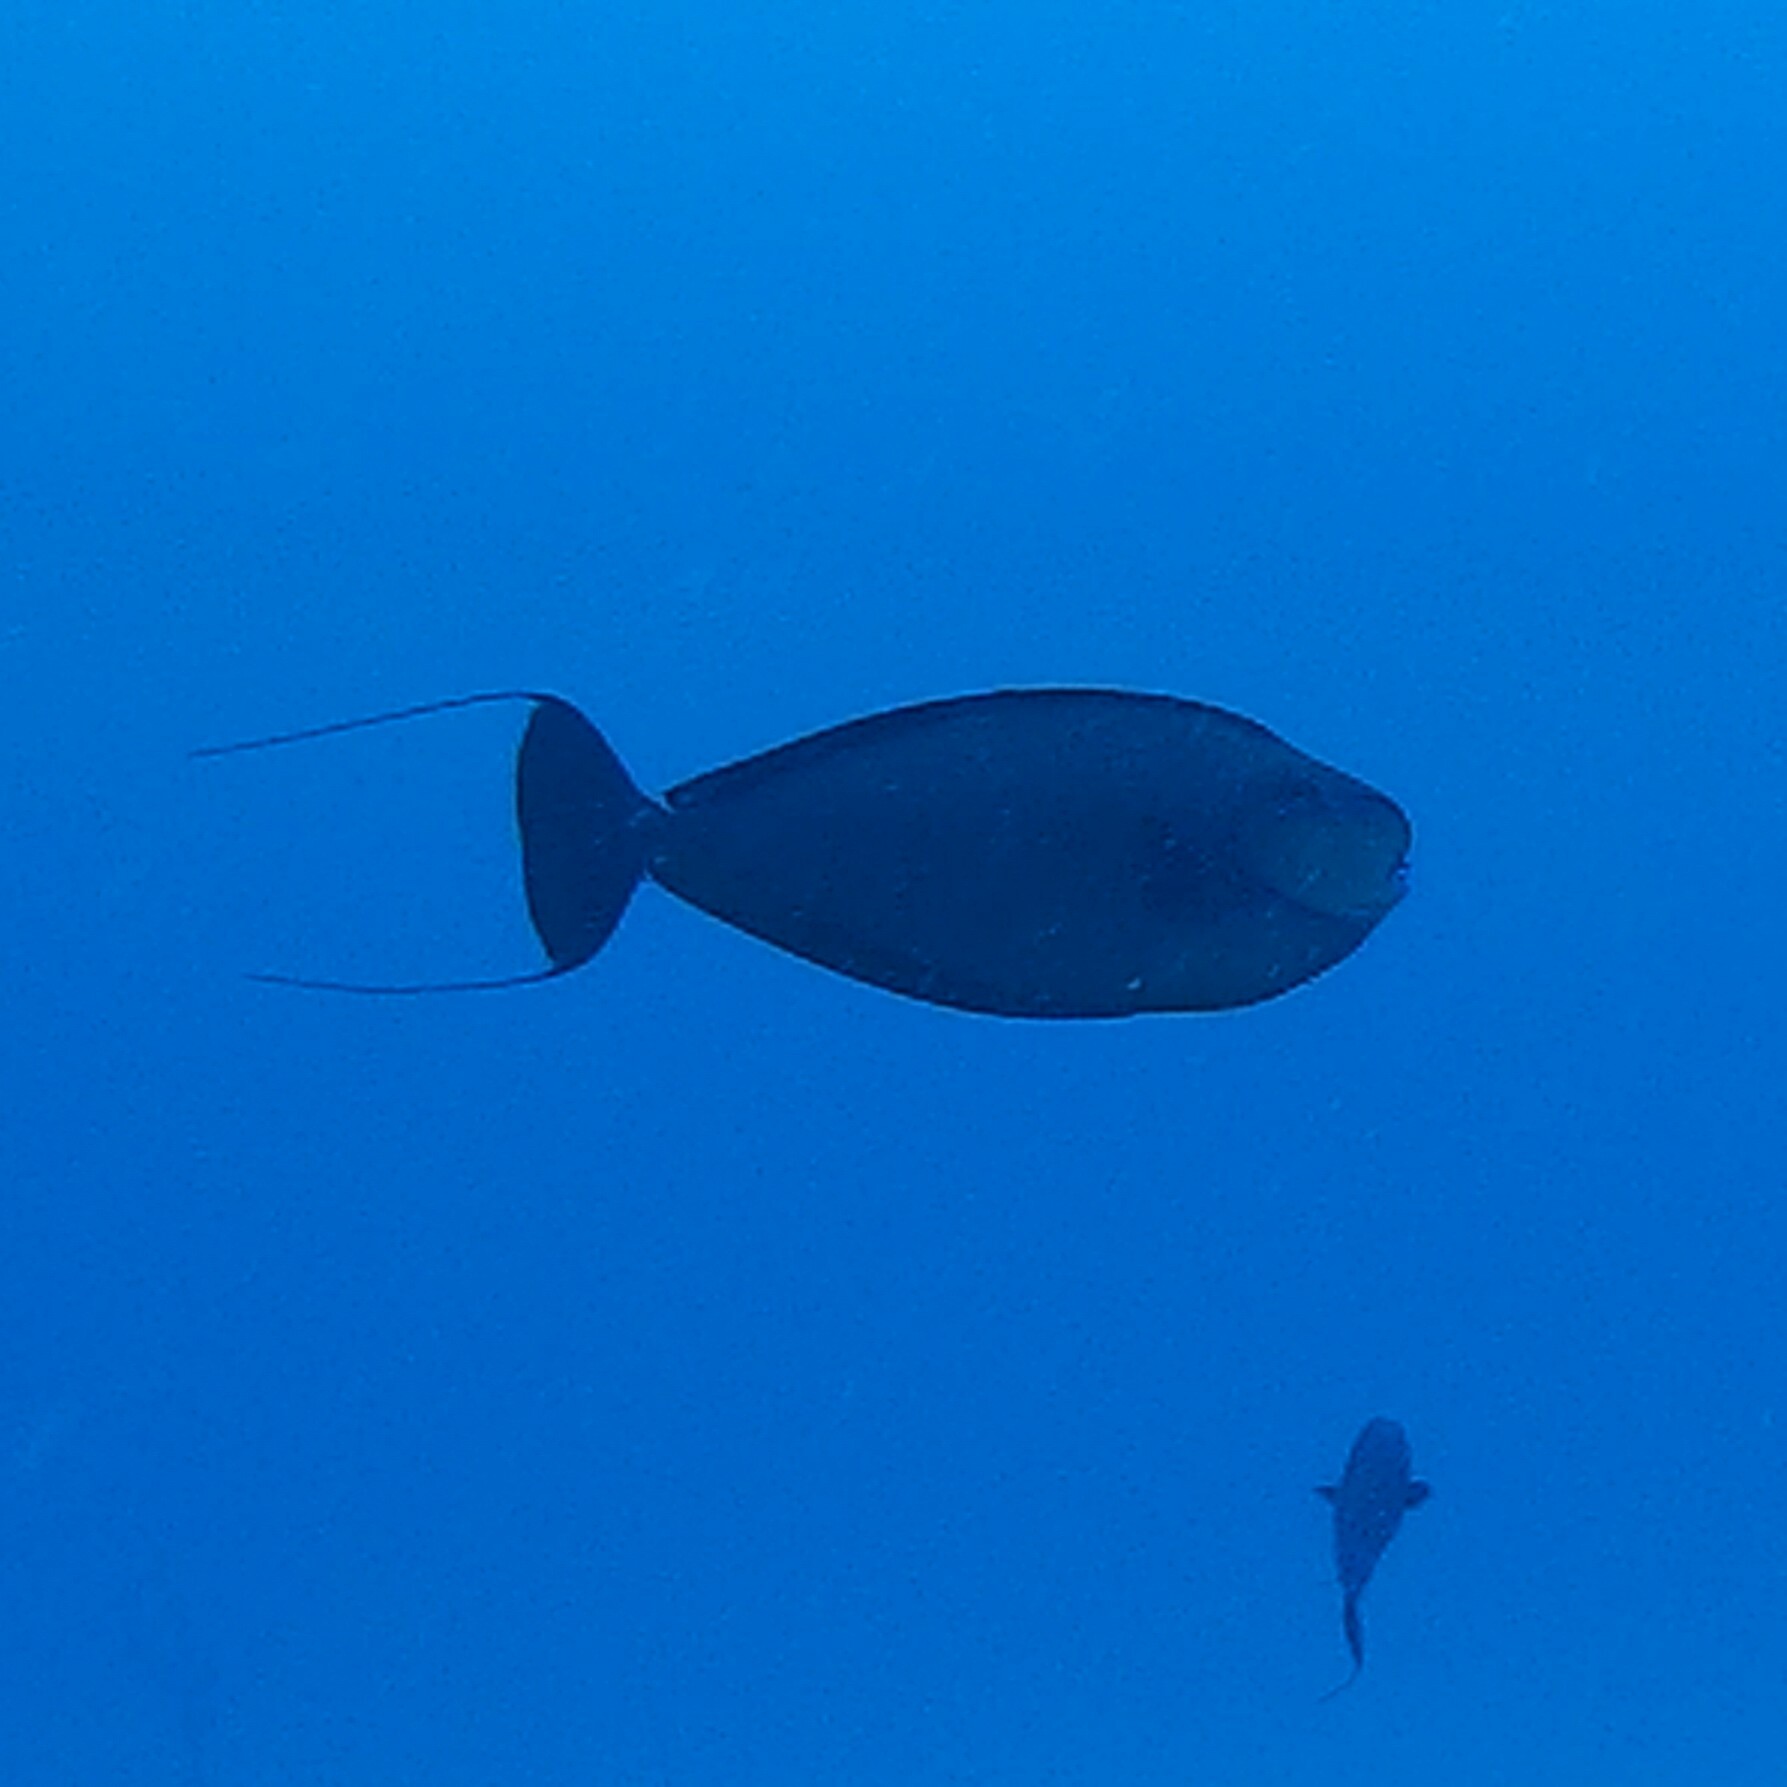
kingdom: Animalia
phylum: Chordata
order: Perciformes
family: Acanthuridae
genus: Naso
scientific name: Naso vlamingii
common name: Big-nose unicorn
